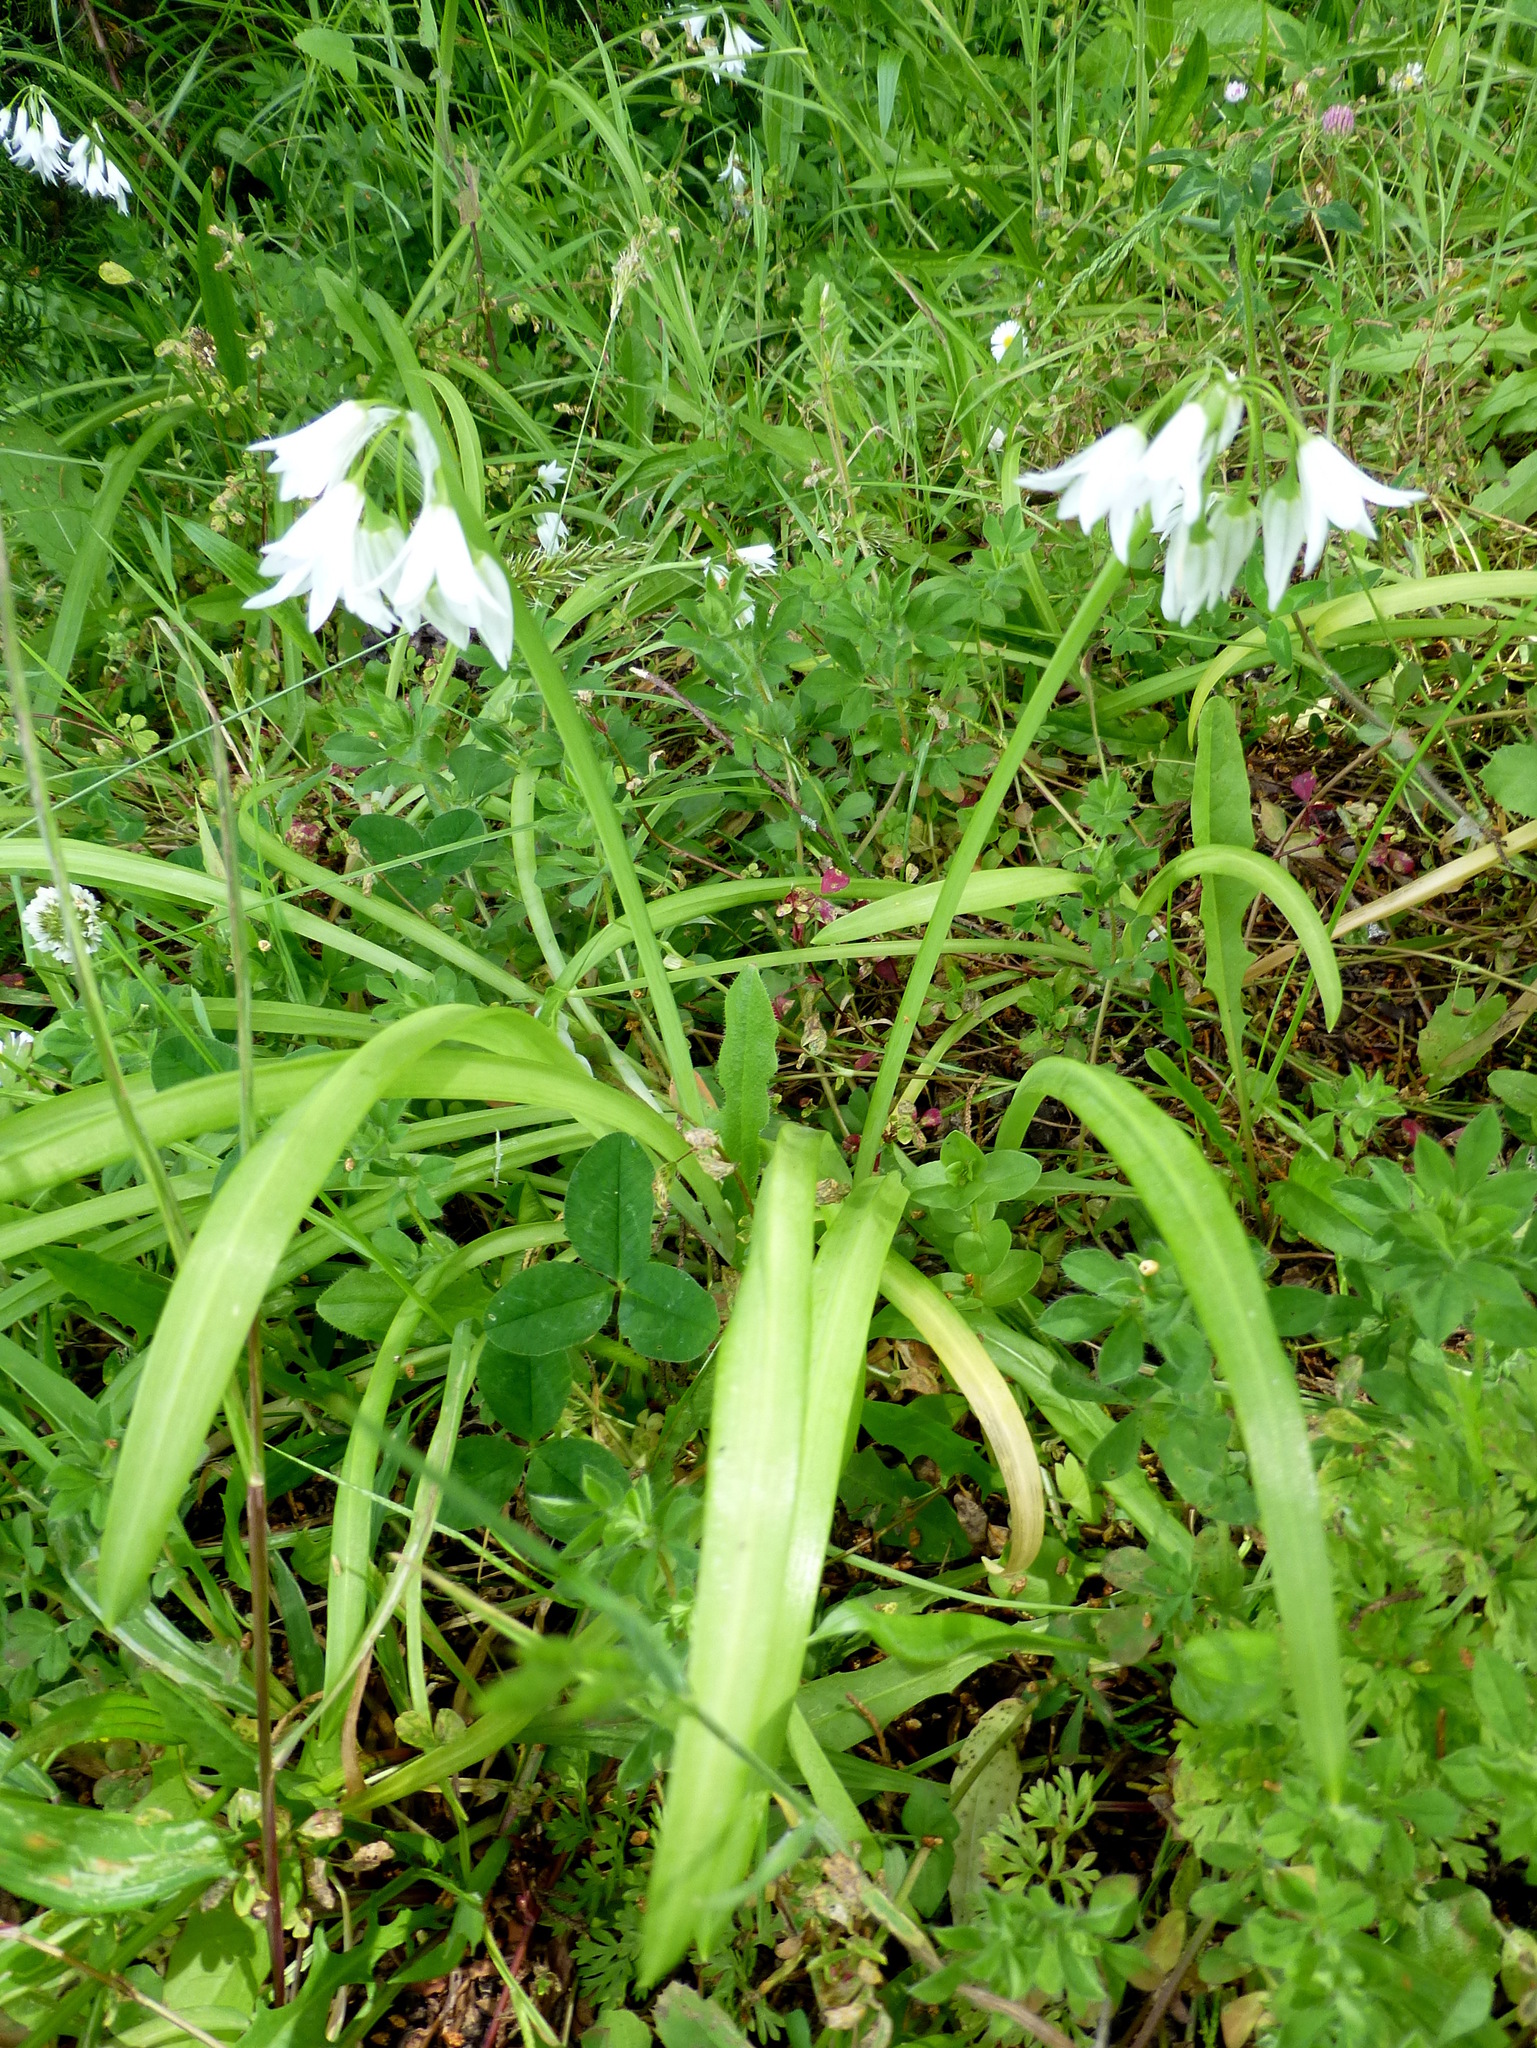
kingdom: Plantae
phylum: Tracheophyta
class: Liliopsida
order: Asparagales
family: Amaryllidaceae
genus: Allium
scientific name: Allium triquetrum
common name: Three-cornered garlic
